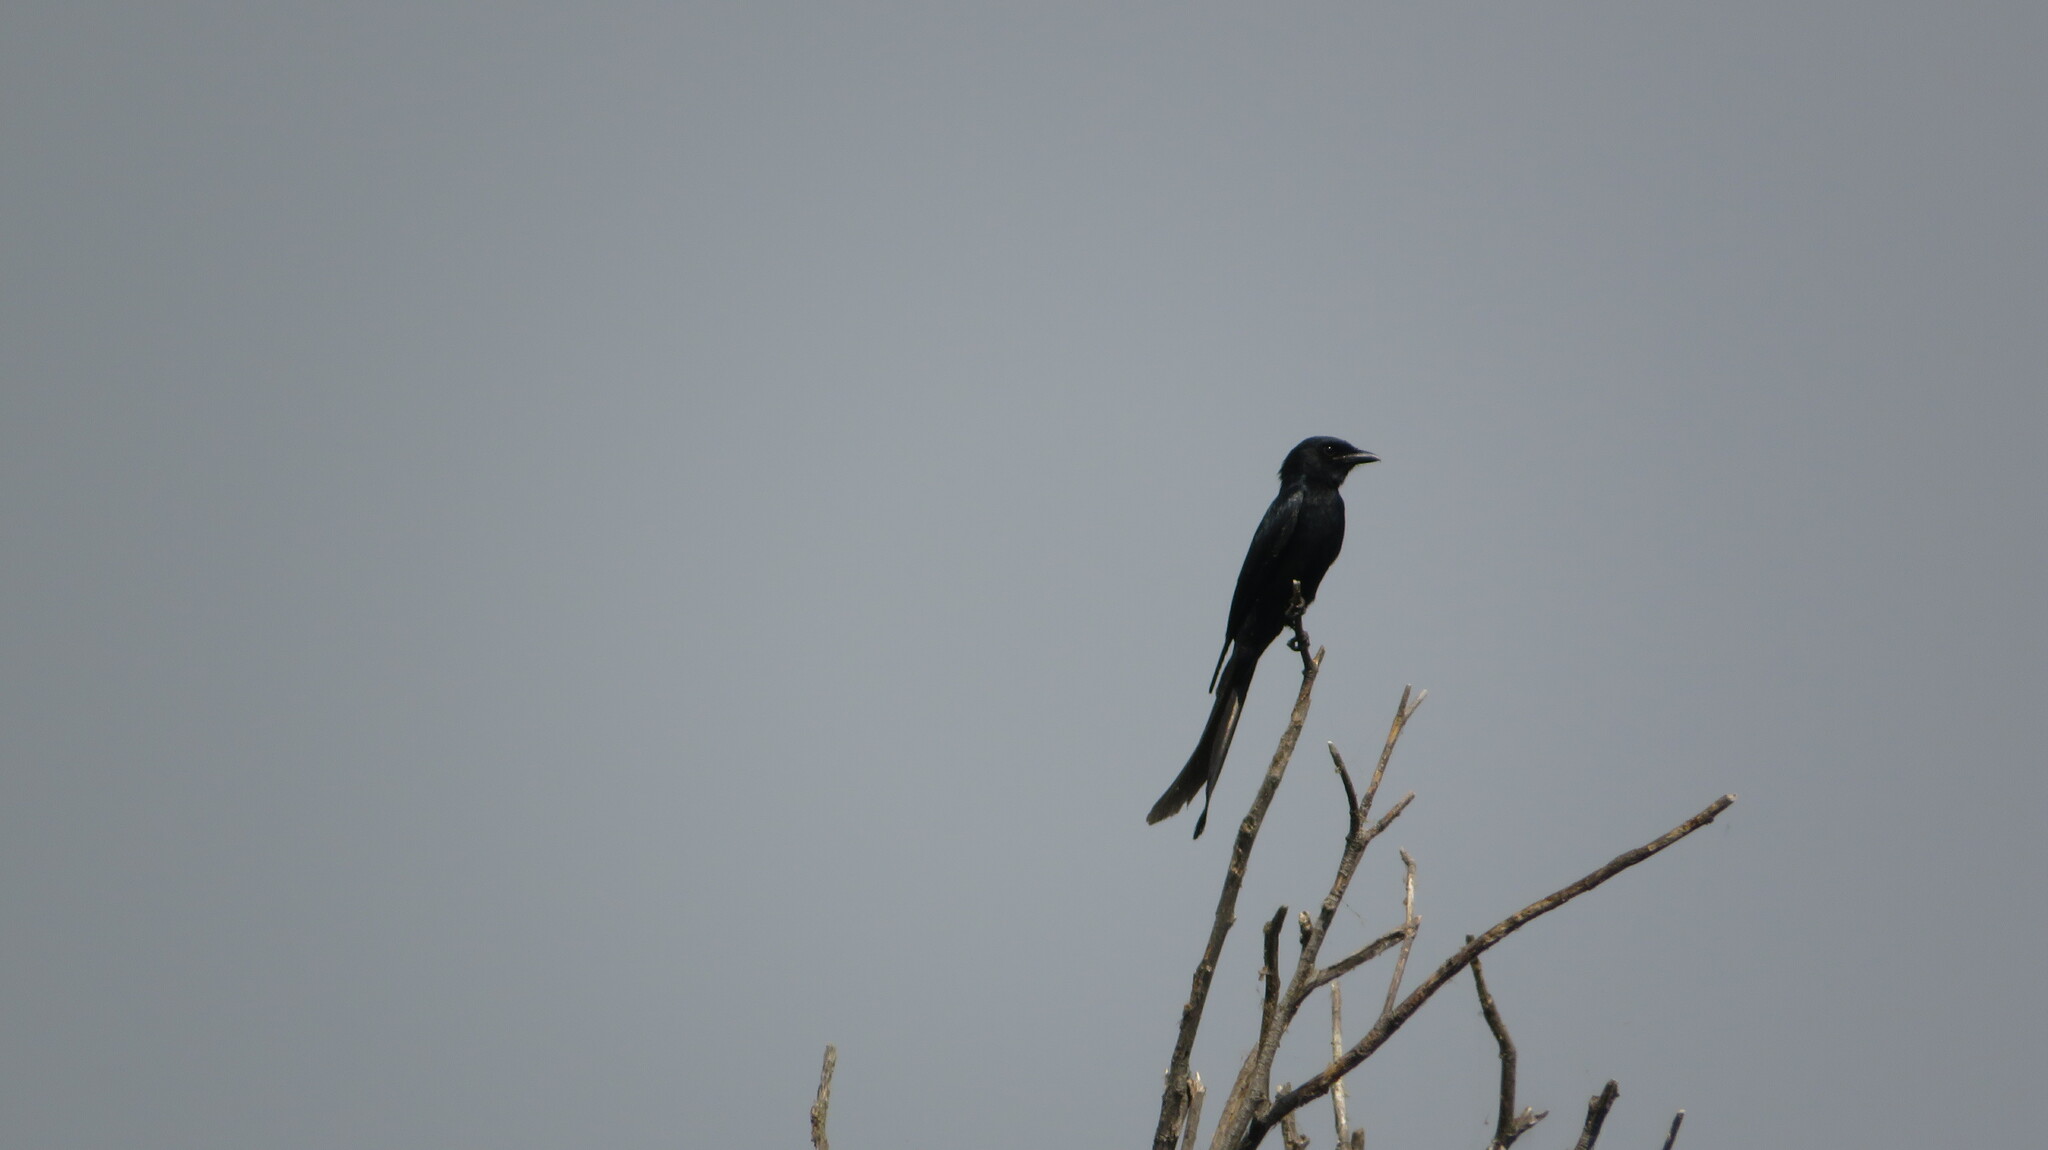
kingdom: Animalia
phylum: Chordata
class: Aves
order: Passeriformes
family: Dicruridae
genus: Dicrurus
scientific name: Dicrurus macrocercus
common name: Black drongo
